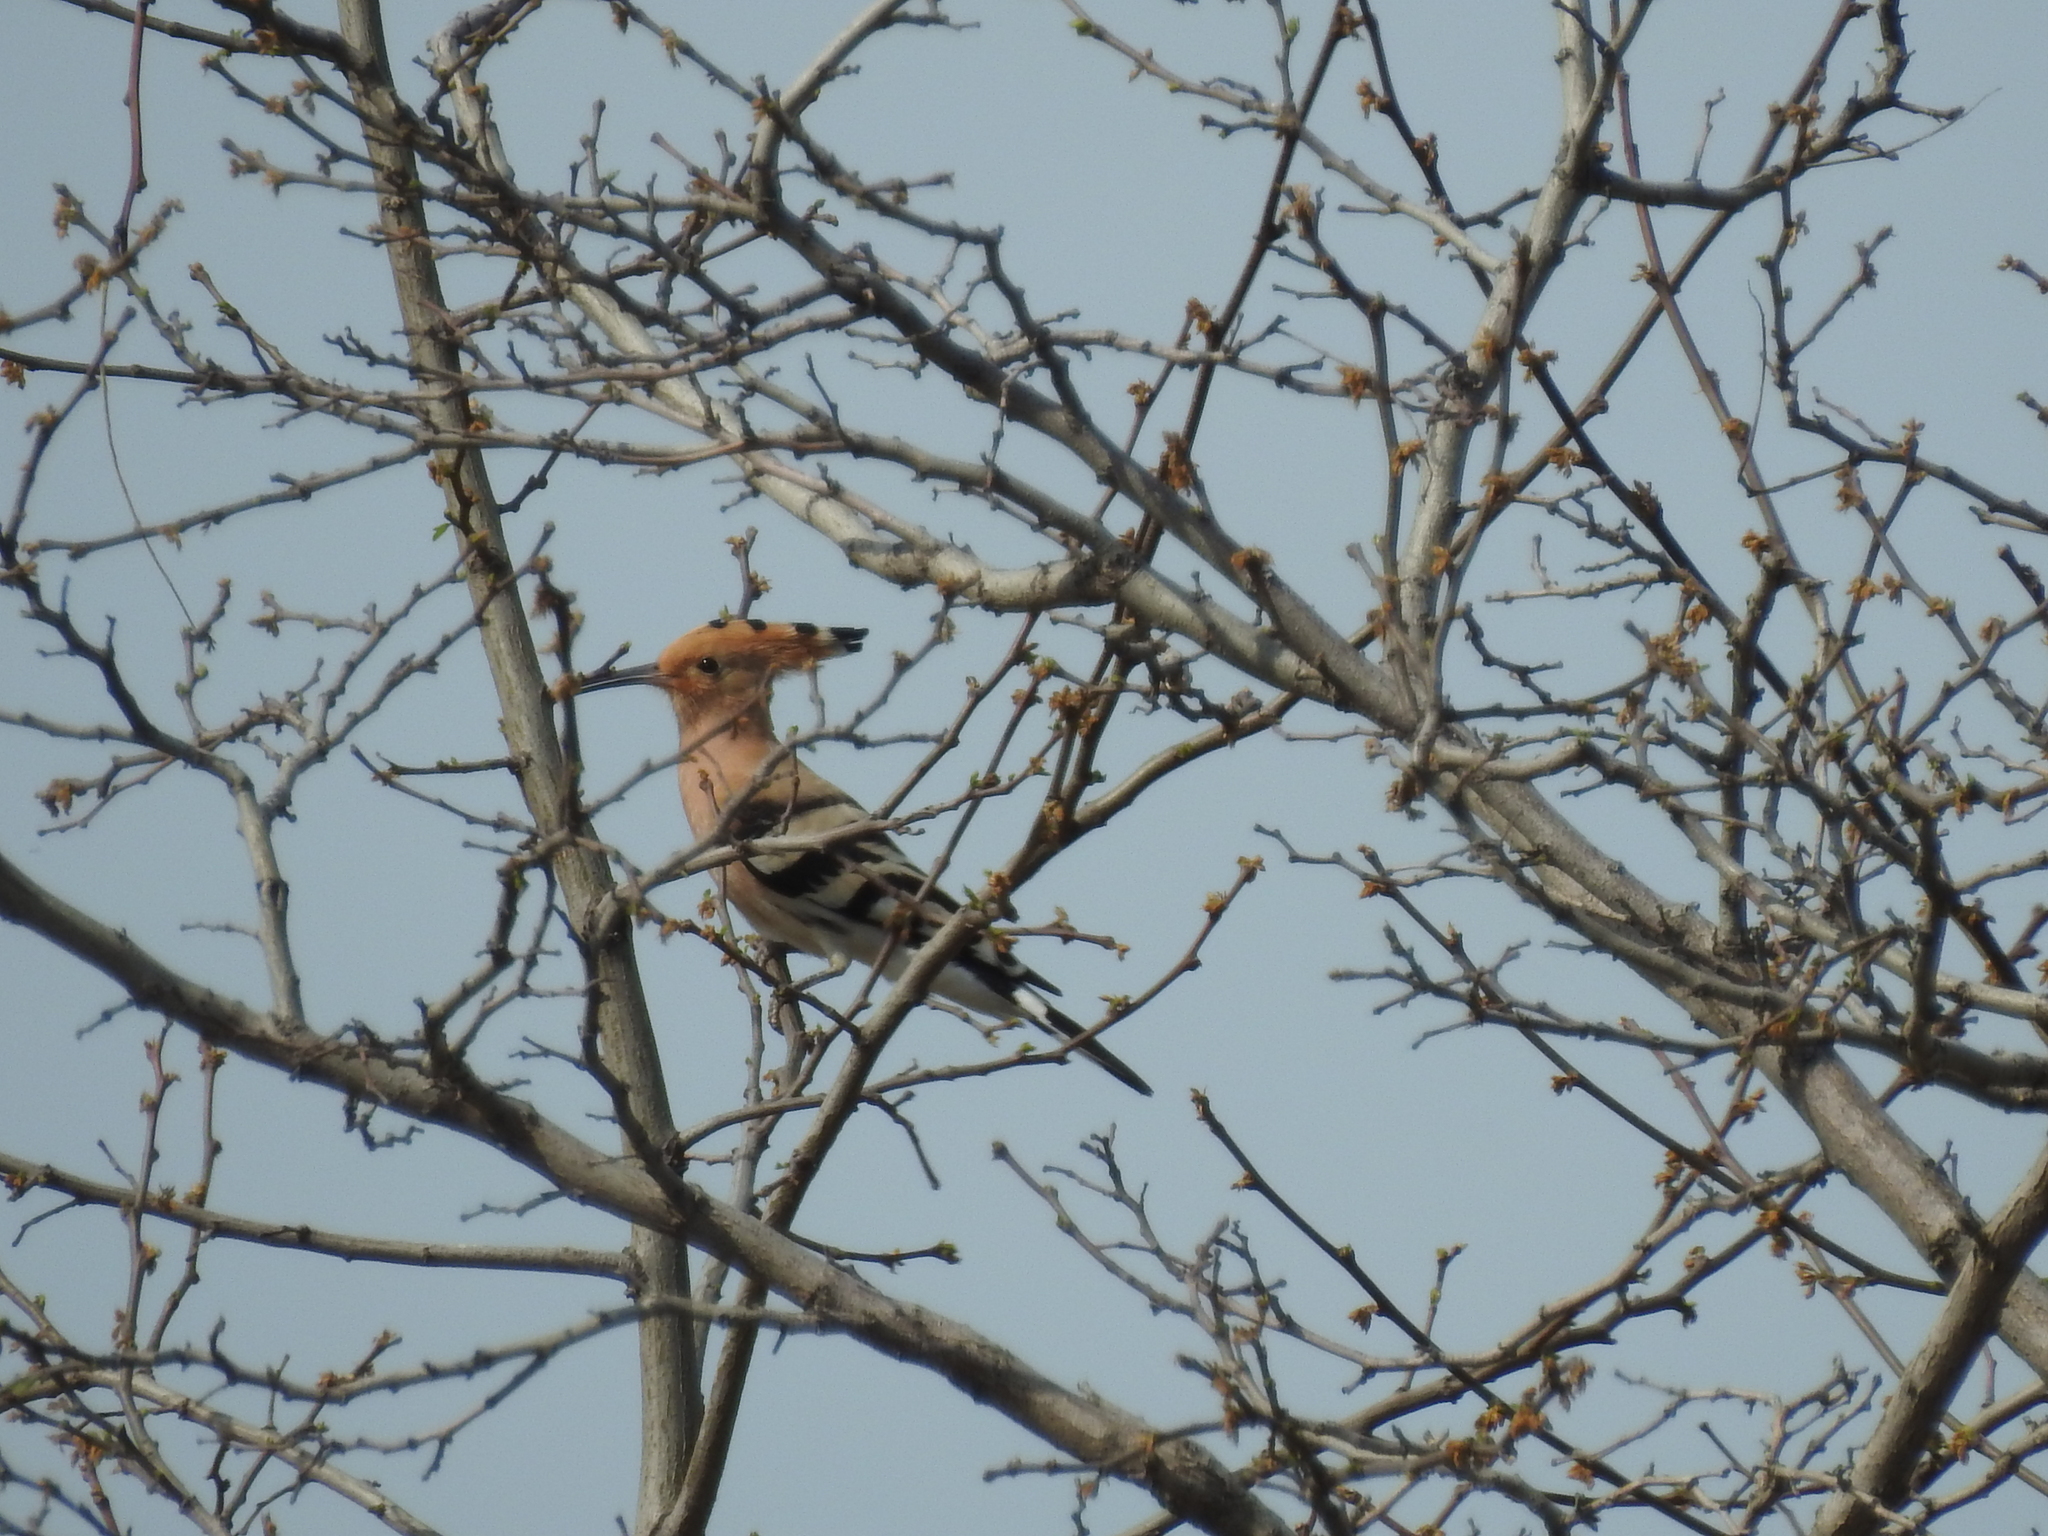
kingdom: Animalia
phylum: Chordata
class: Aves
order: Bucerotiformes
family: Upupidae
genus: Upupa
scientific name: Upupa epops
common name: Eurasian hoopoe
